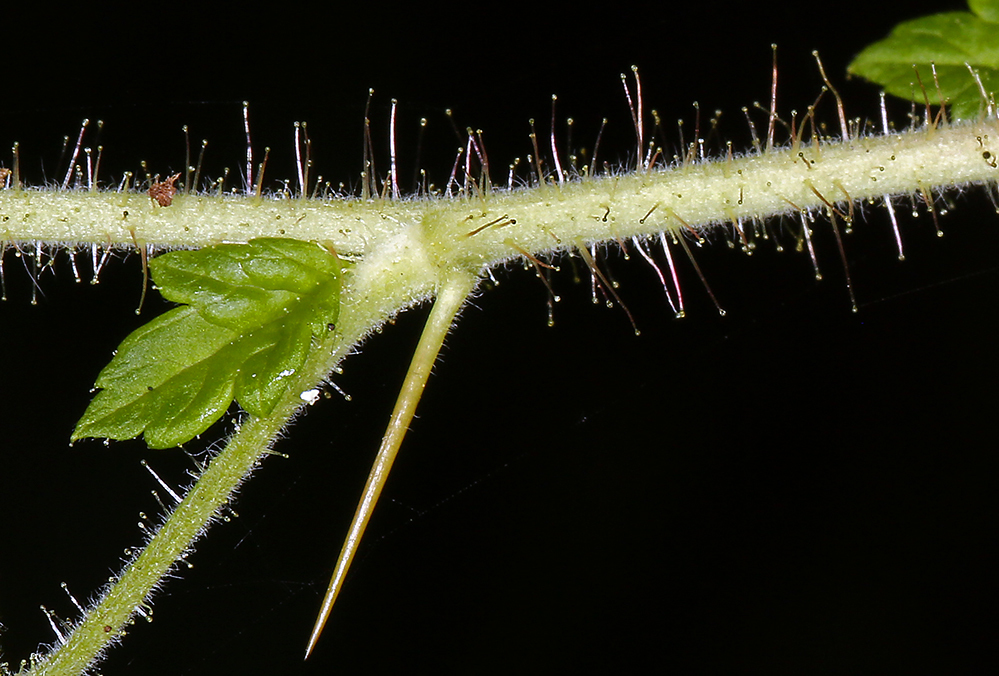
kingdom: Plantae
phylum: Tracheophyta
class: Magnoliopsida
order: Saxifragales
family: Grossulariaceae
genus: Ribes
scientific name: Ribes menziesii
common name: Canyon gooseberry
